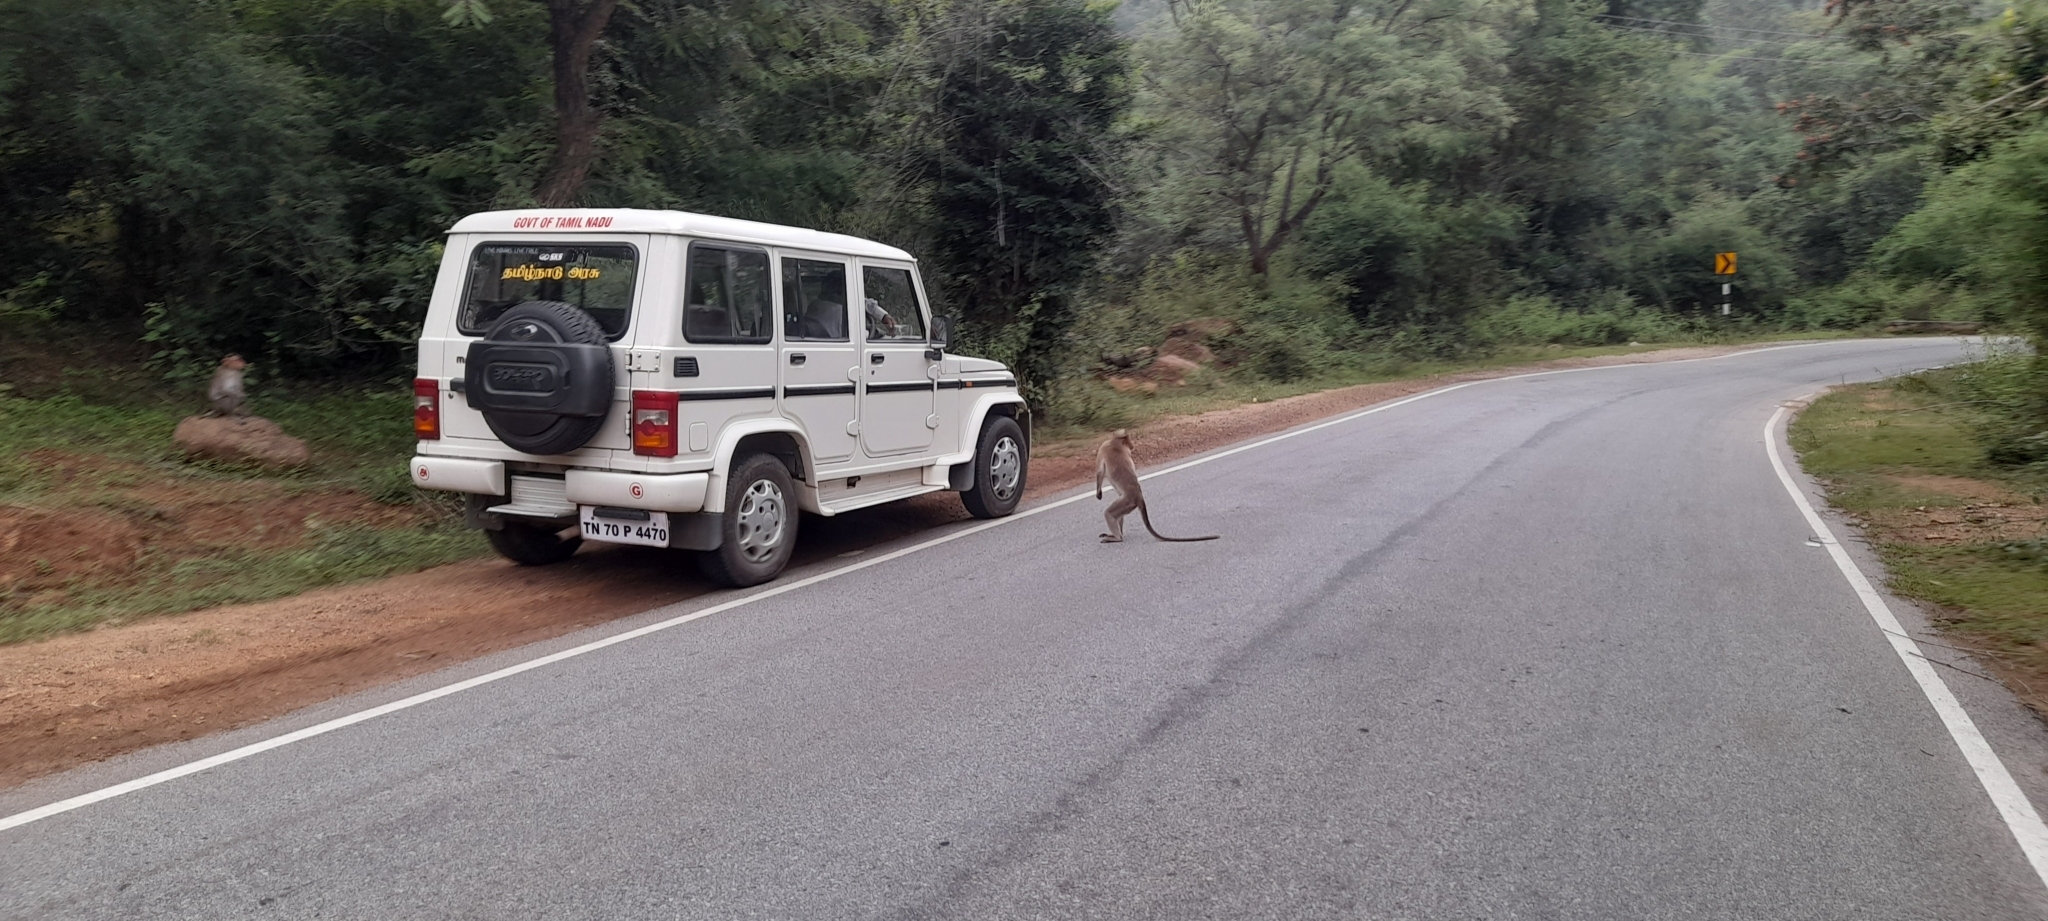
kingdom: Animalia
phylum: Chordata
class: Mammalia
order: Primates
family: Cercopithecidae
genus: Macaca
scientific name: Macaca radiata
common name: Bonnet macaque
